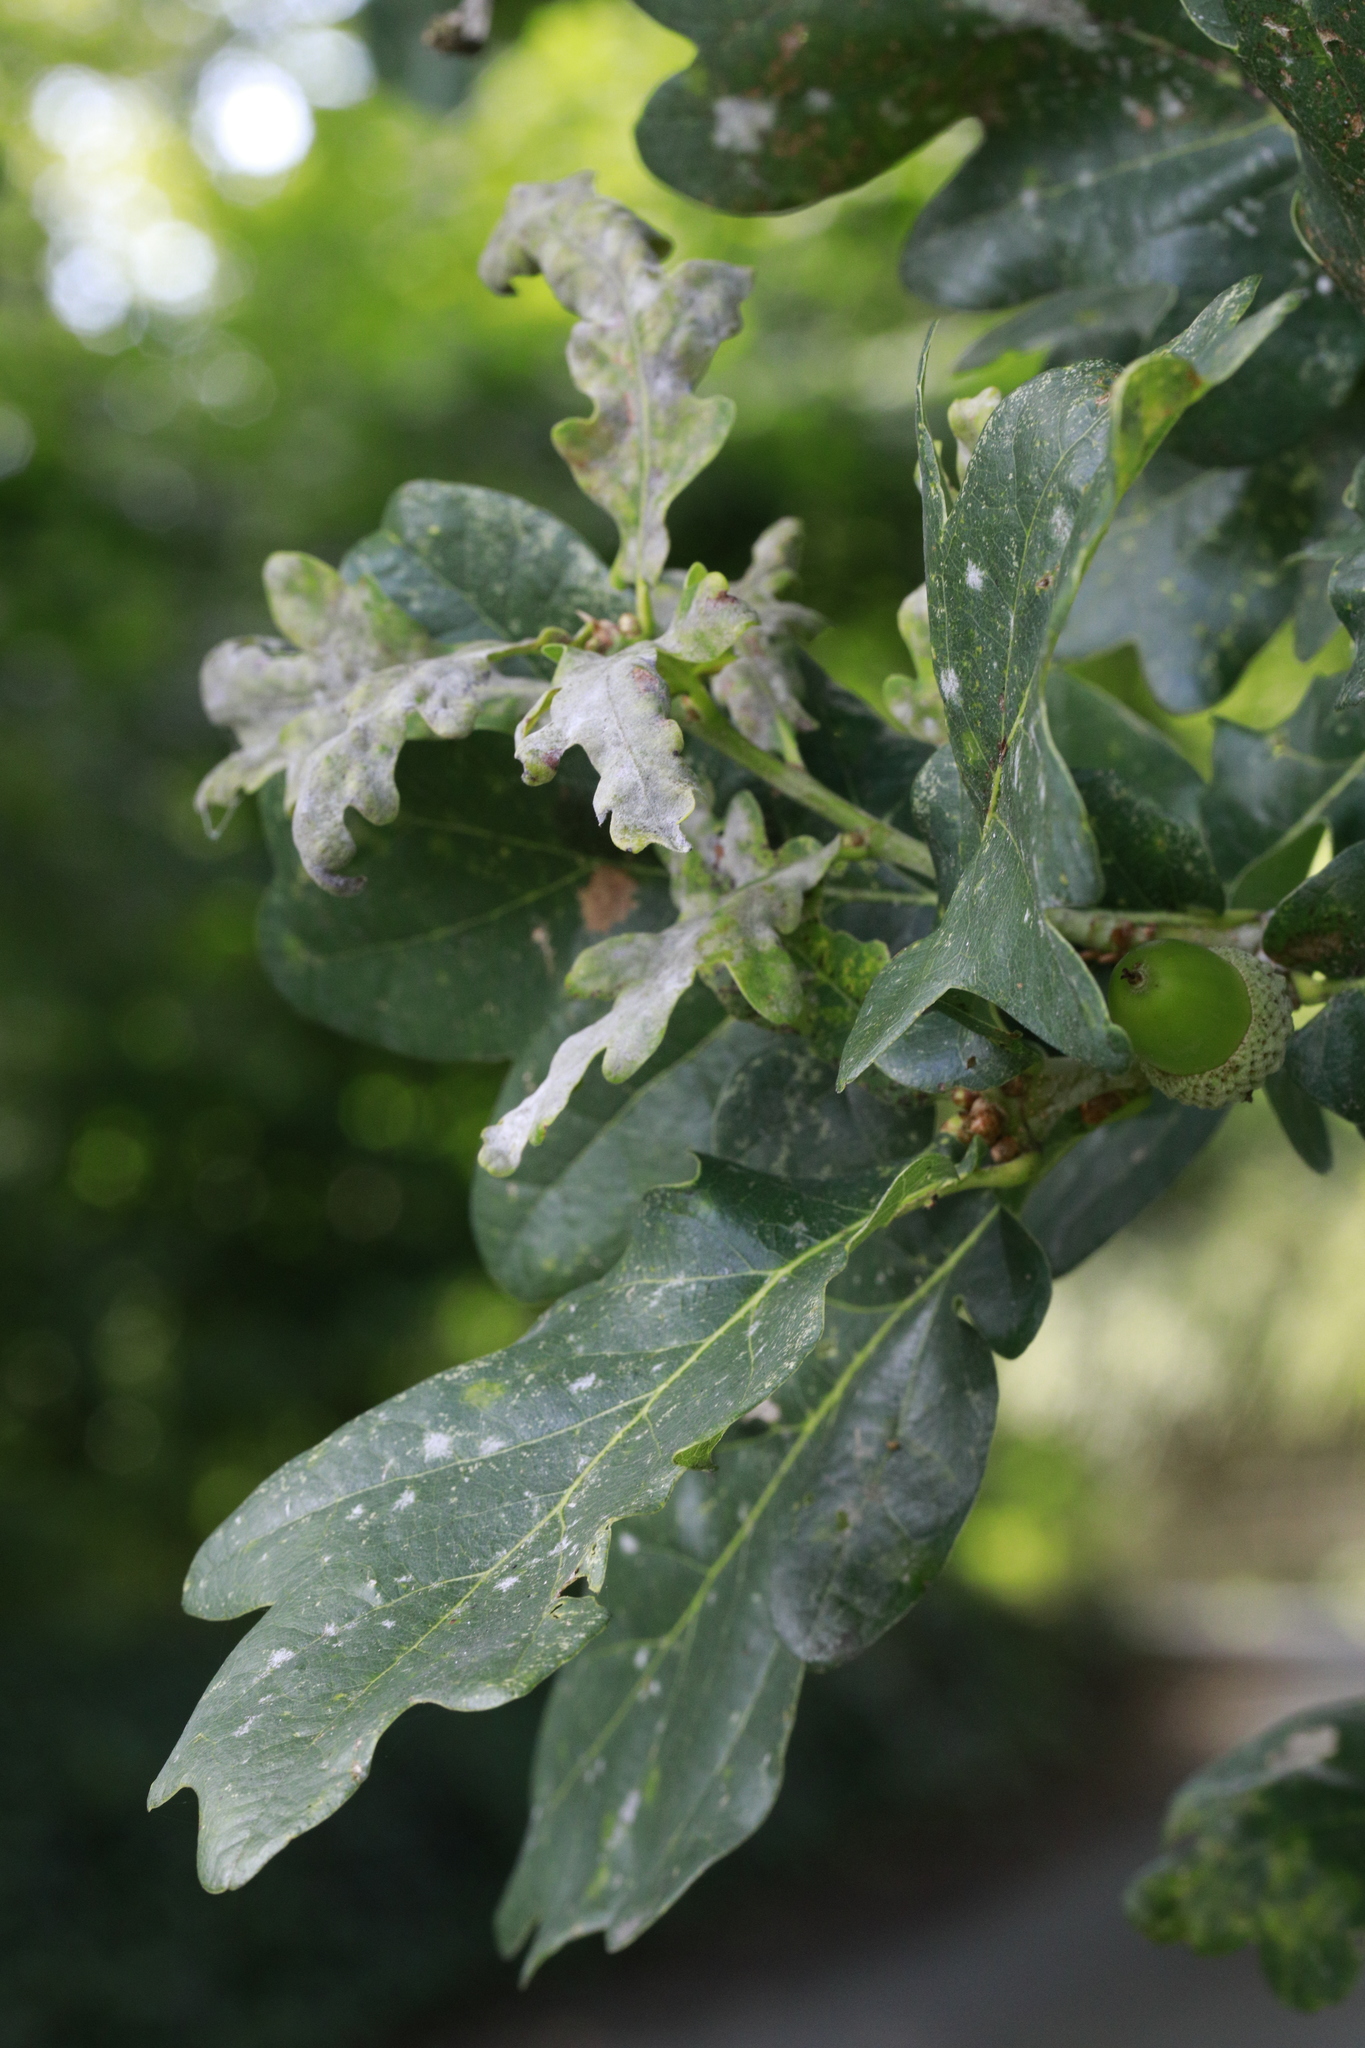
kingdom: Plantae
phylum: Tracheophyta
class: Magnoliopsida
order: Fagales
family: Fagaceae
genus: Quercus
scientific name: Quercus robur
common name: Pedunculate oak
